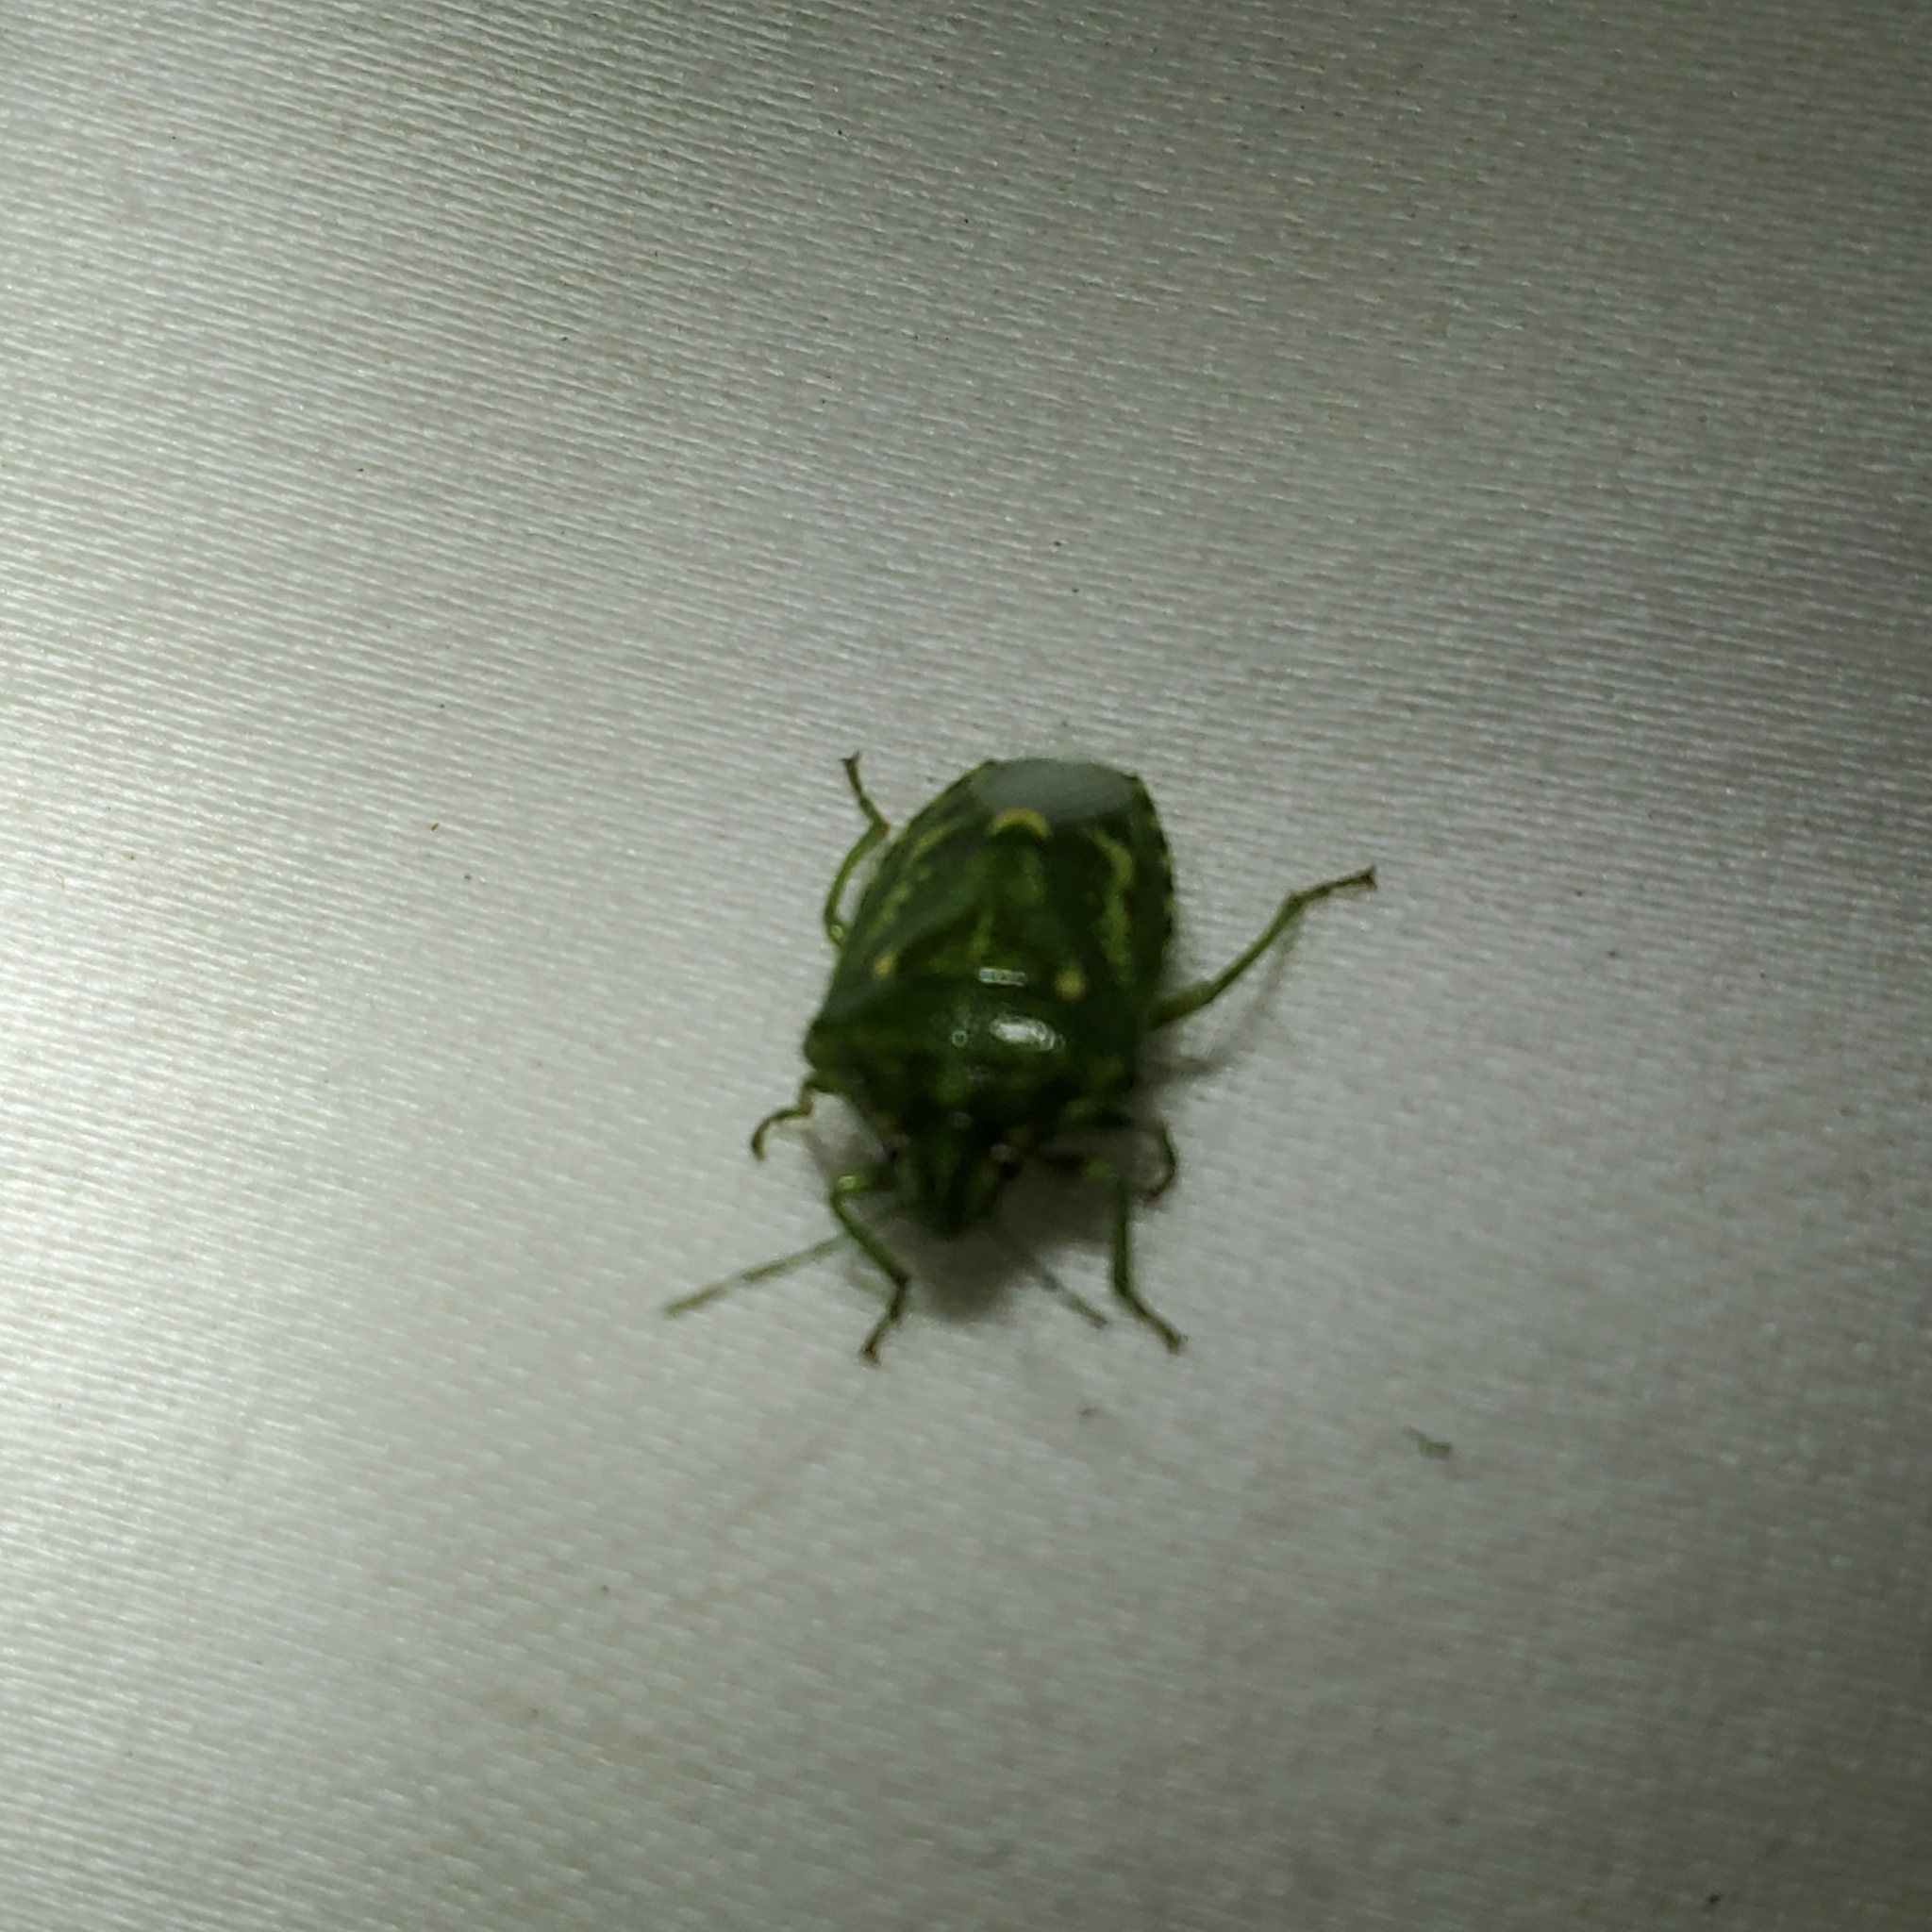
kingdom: Animalia
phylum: Arthropoda
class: Insecta
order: Hemiptera
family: Pentatomidae
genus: Banasa
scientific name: Banasa euchlora
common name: Cedar berry bug
